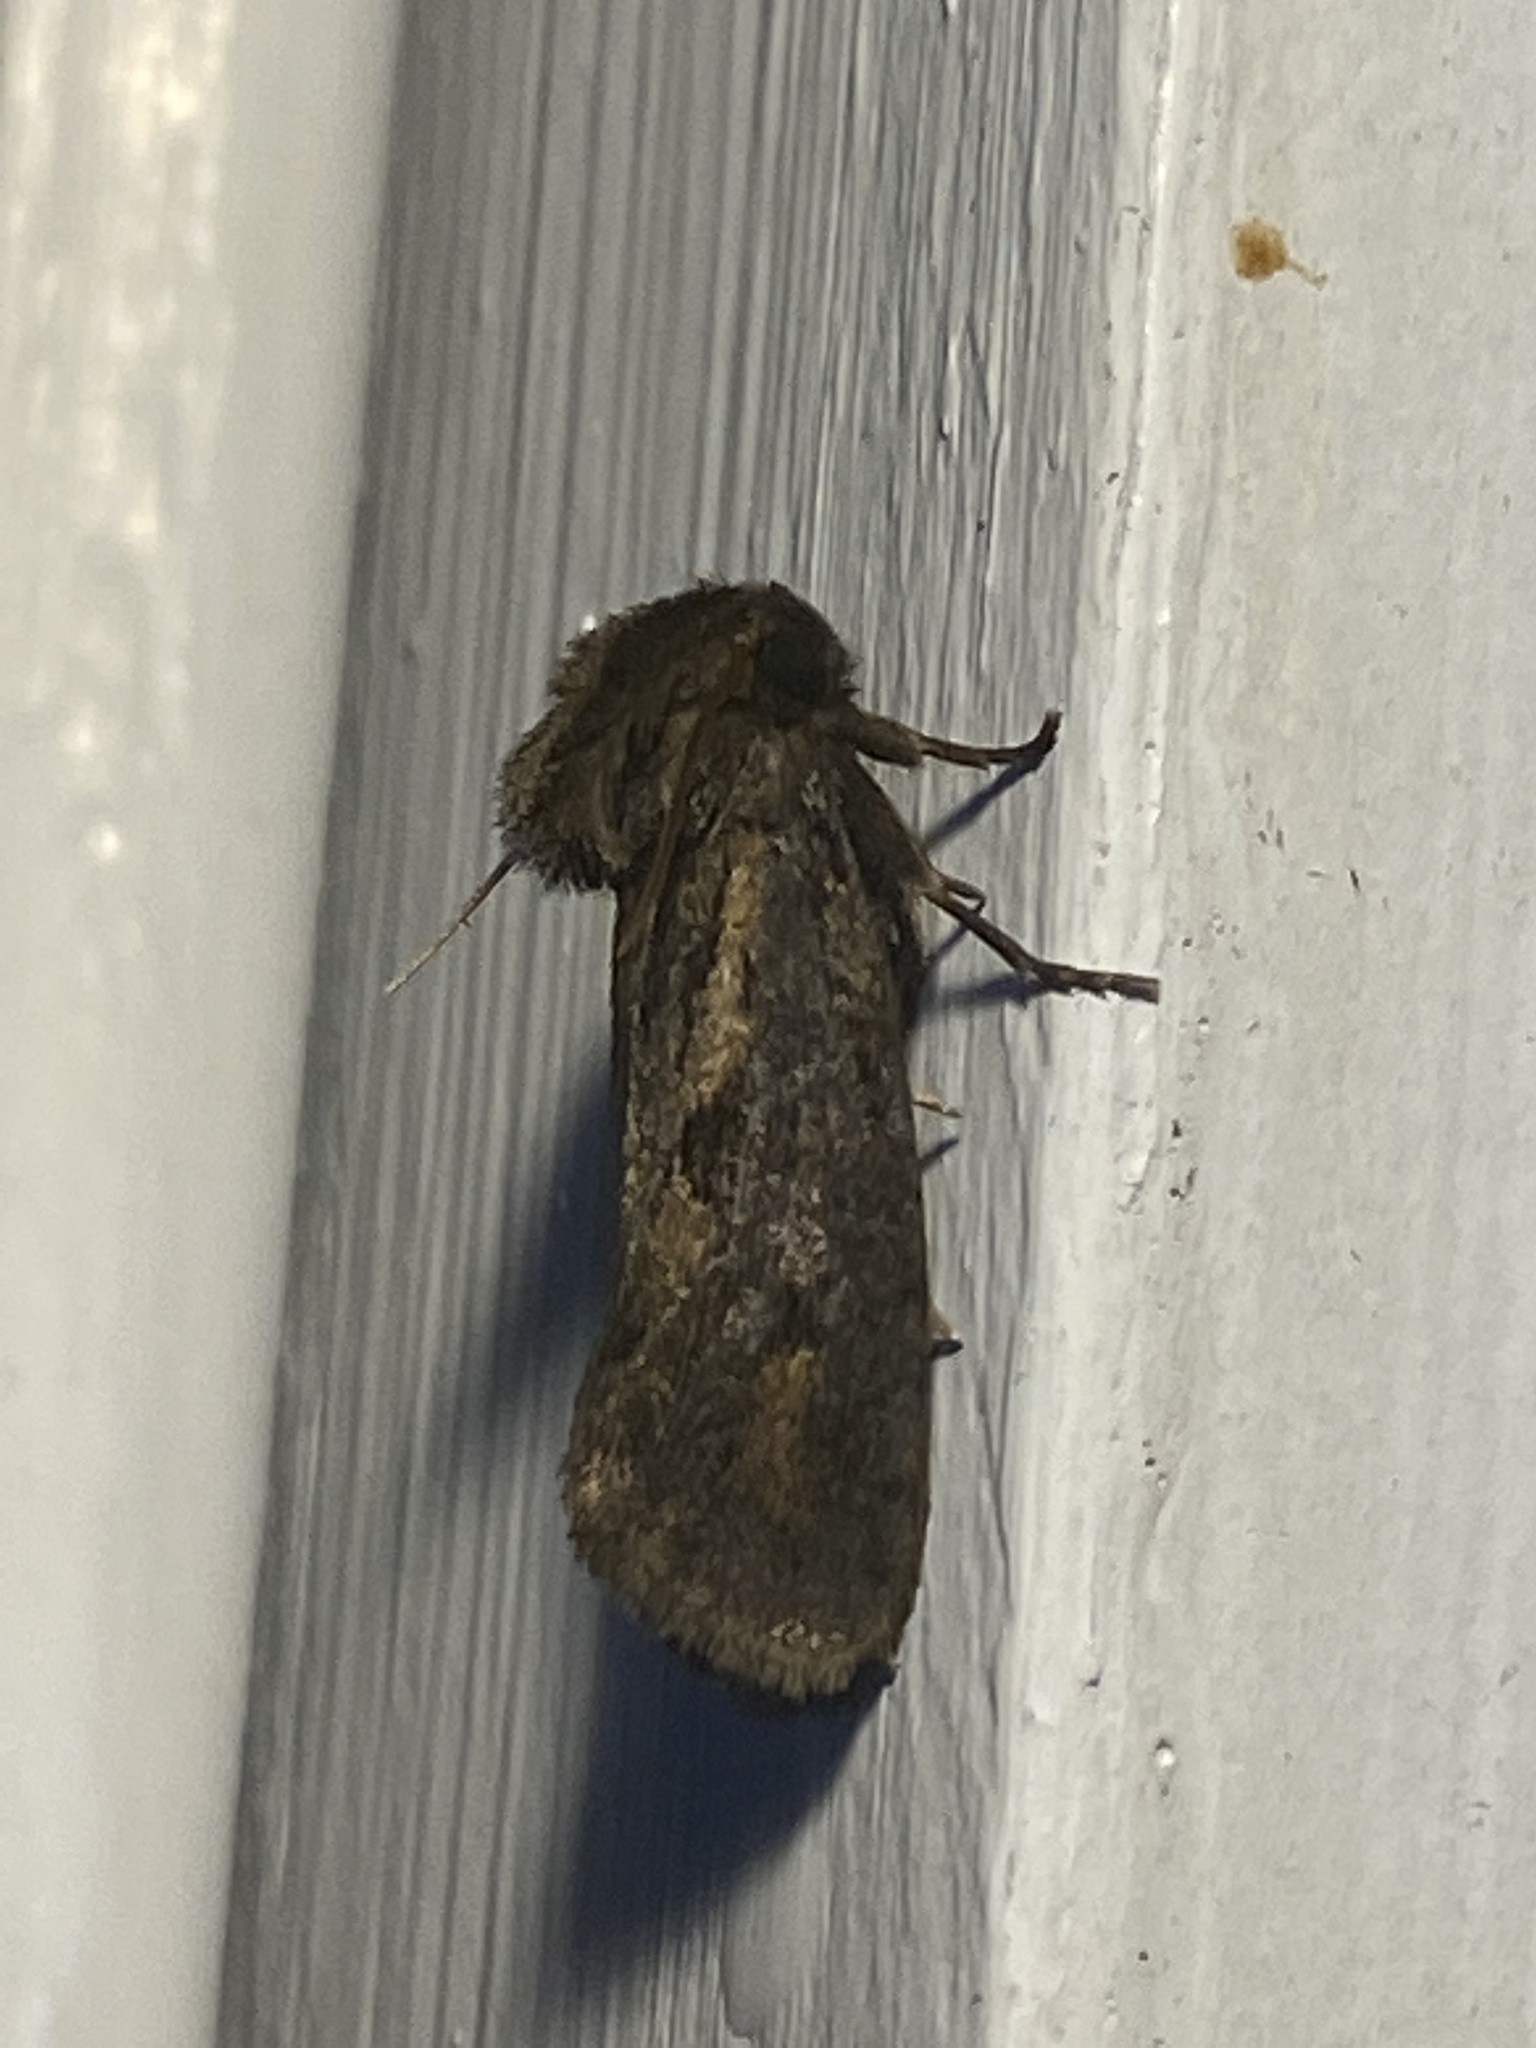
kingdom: Animalia
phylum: Arthropoda
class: Insecta
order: Lepidoptera
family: Tineidae
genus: Acrolophus
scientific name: Acrolophus popeanella
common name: Clemens' grass tubeworm moth
